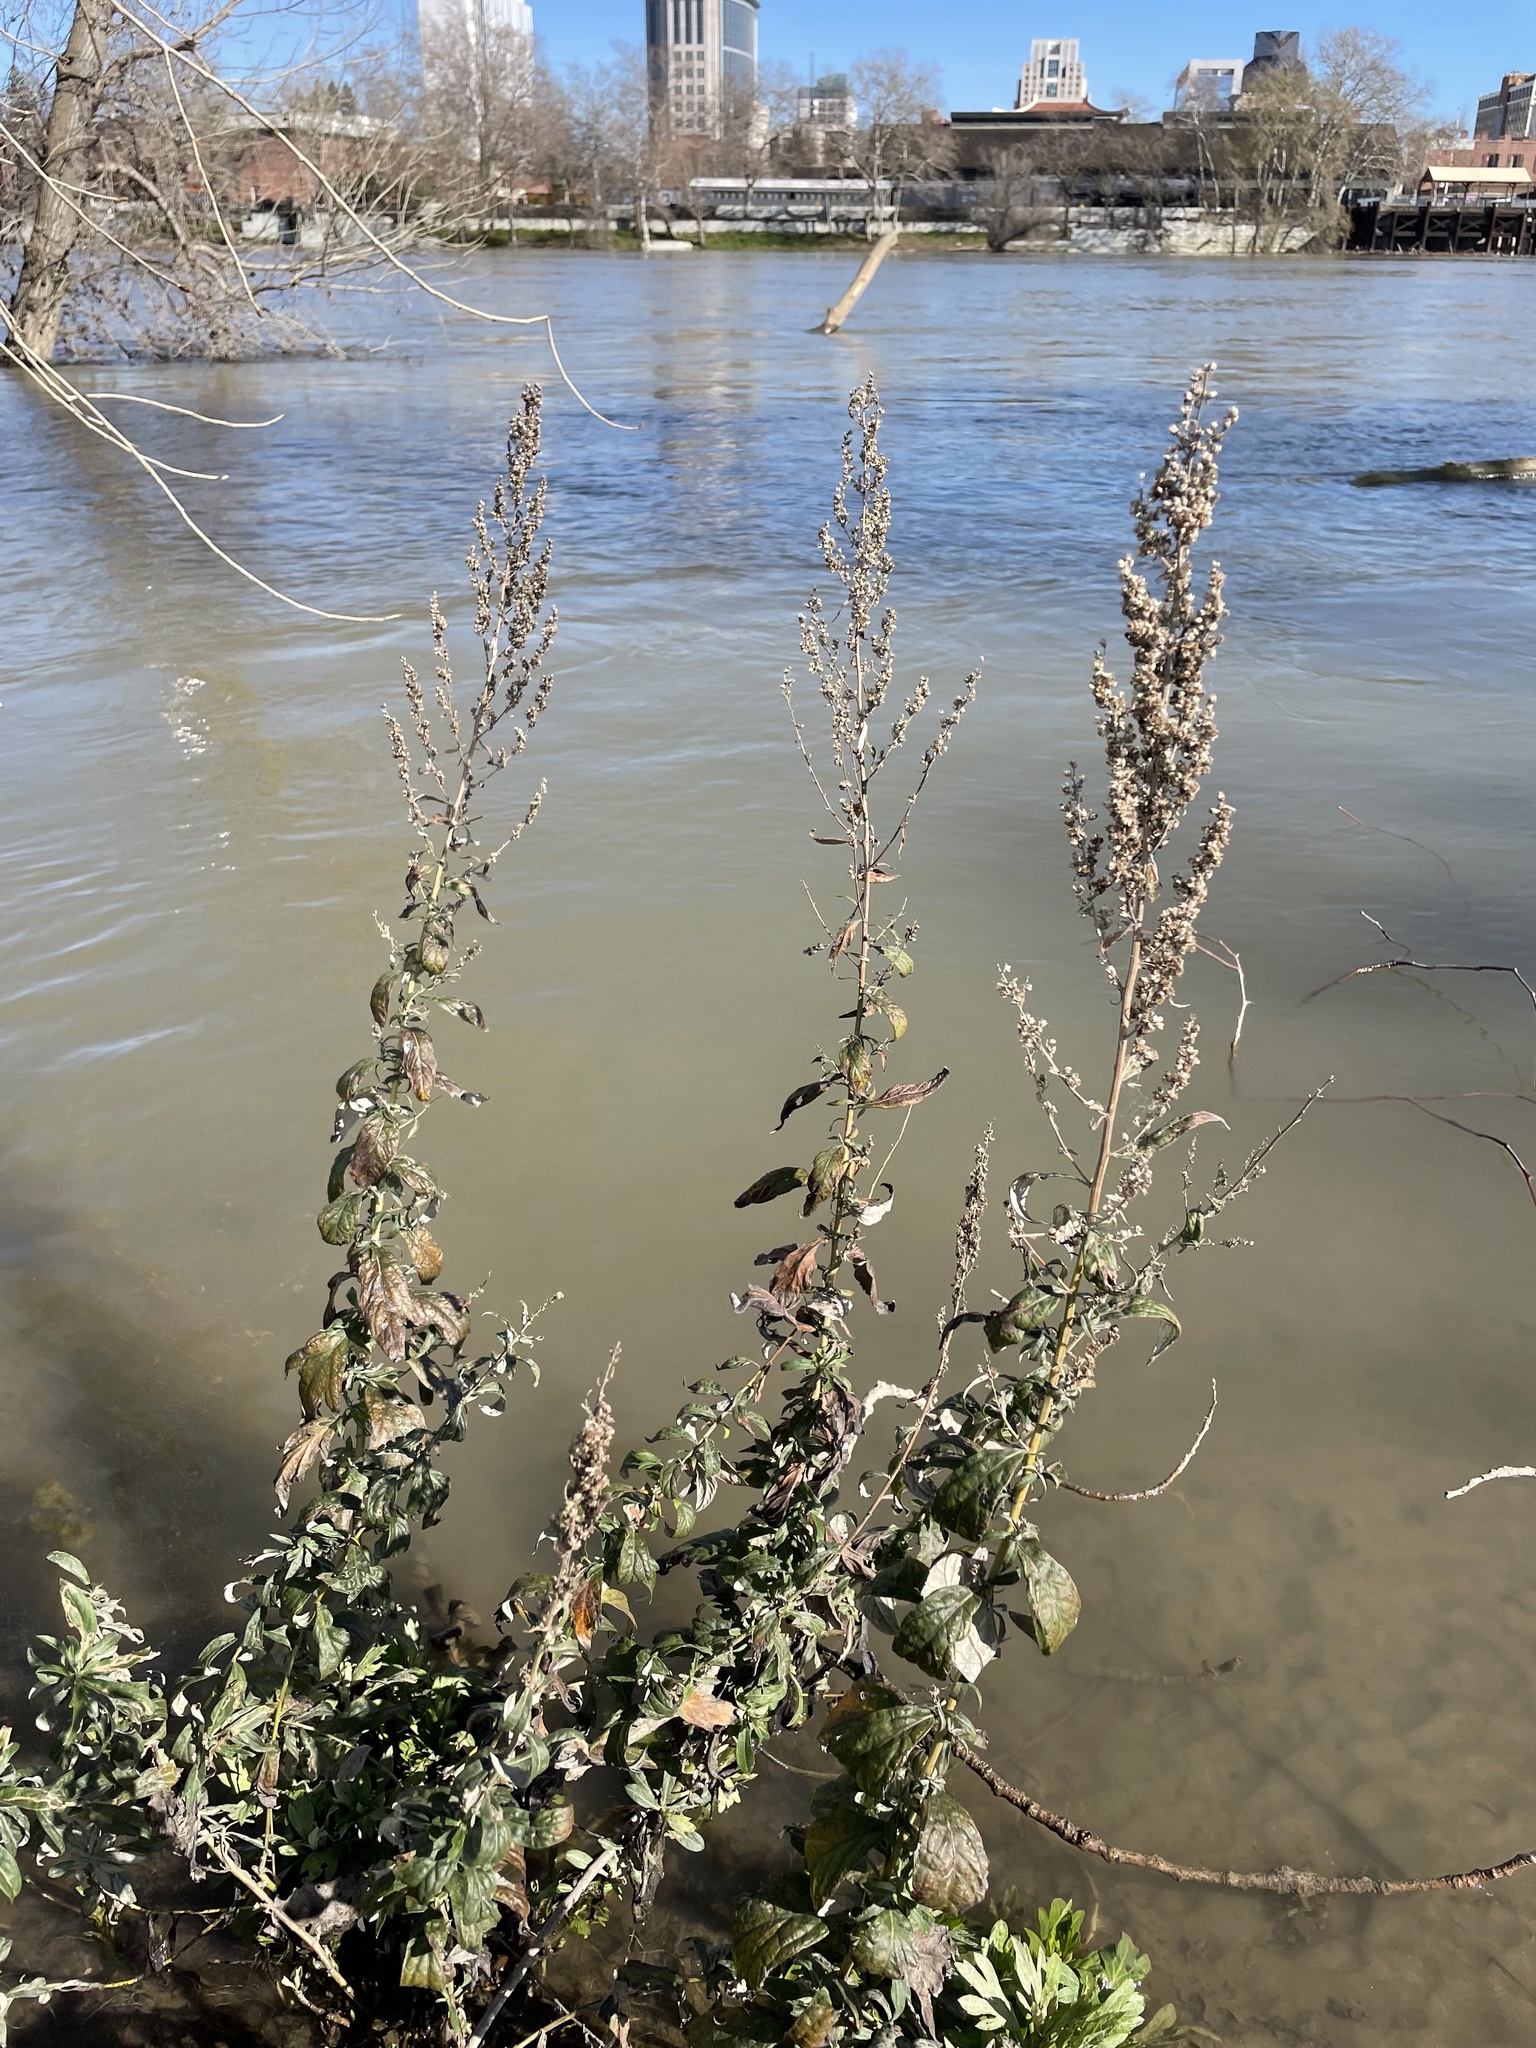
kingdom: Plantae
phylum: Tracheophyta
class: Magnoliopsida
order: Asterales
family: Asteraceae
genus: Artemisia
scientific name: Artemisia douglasiana
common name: Northwest mugwort
